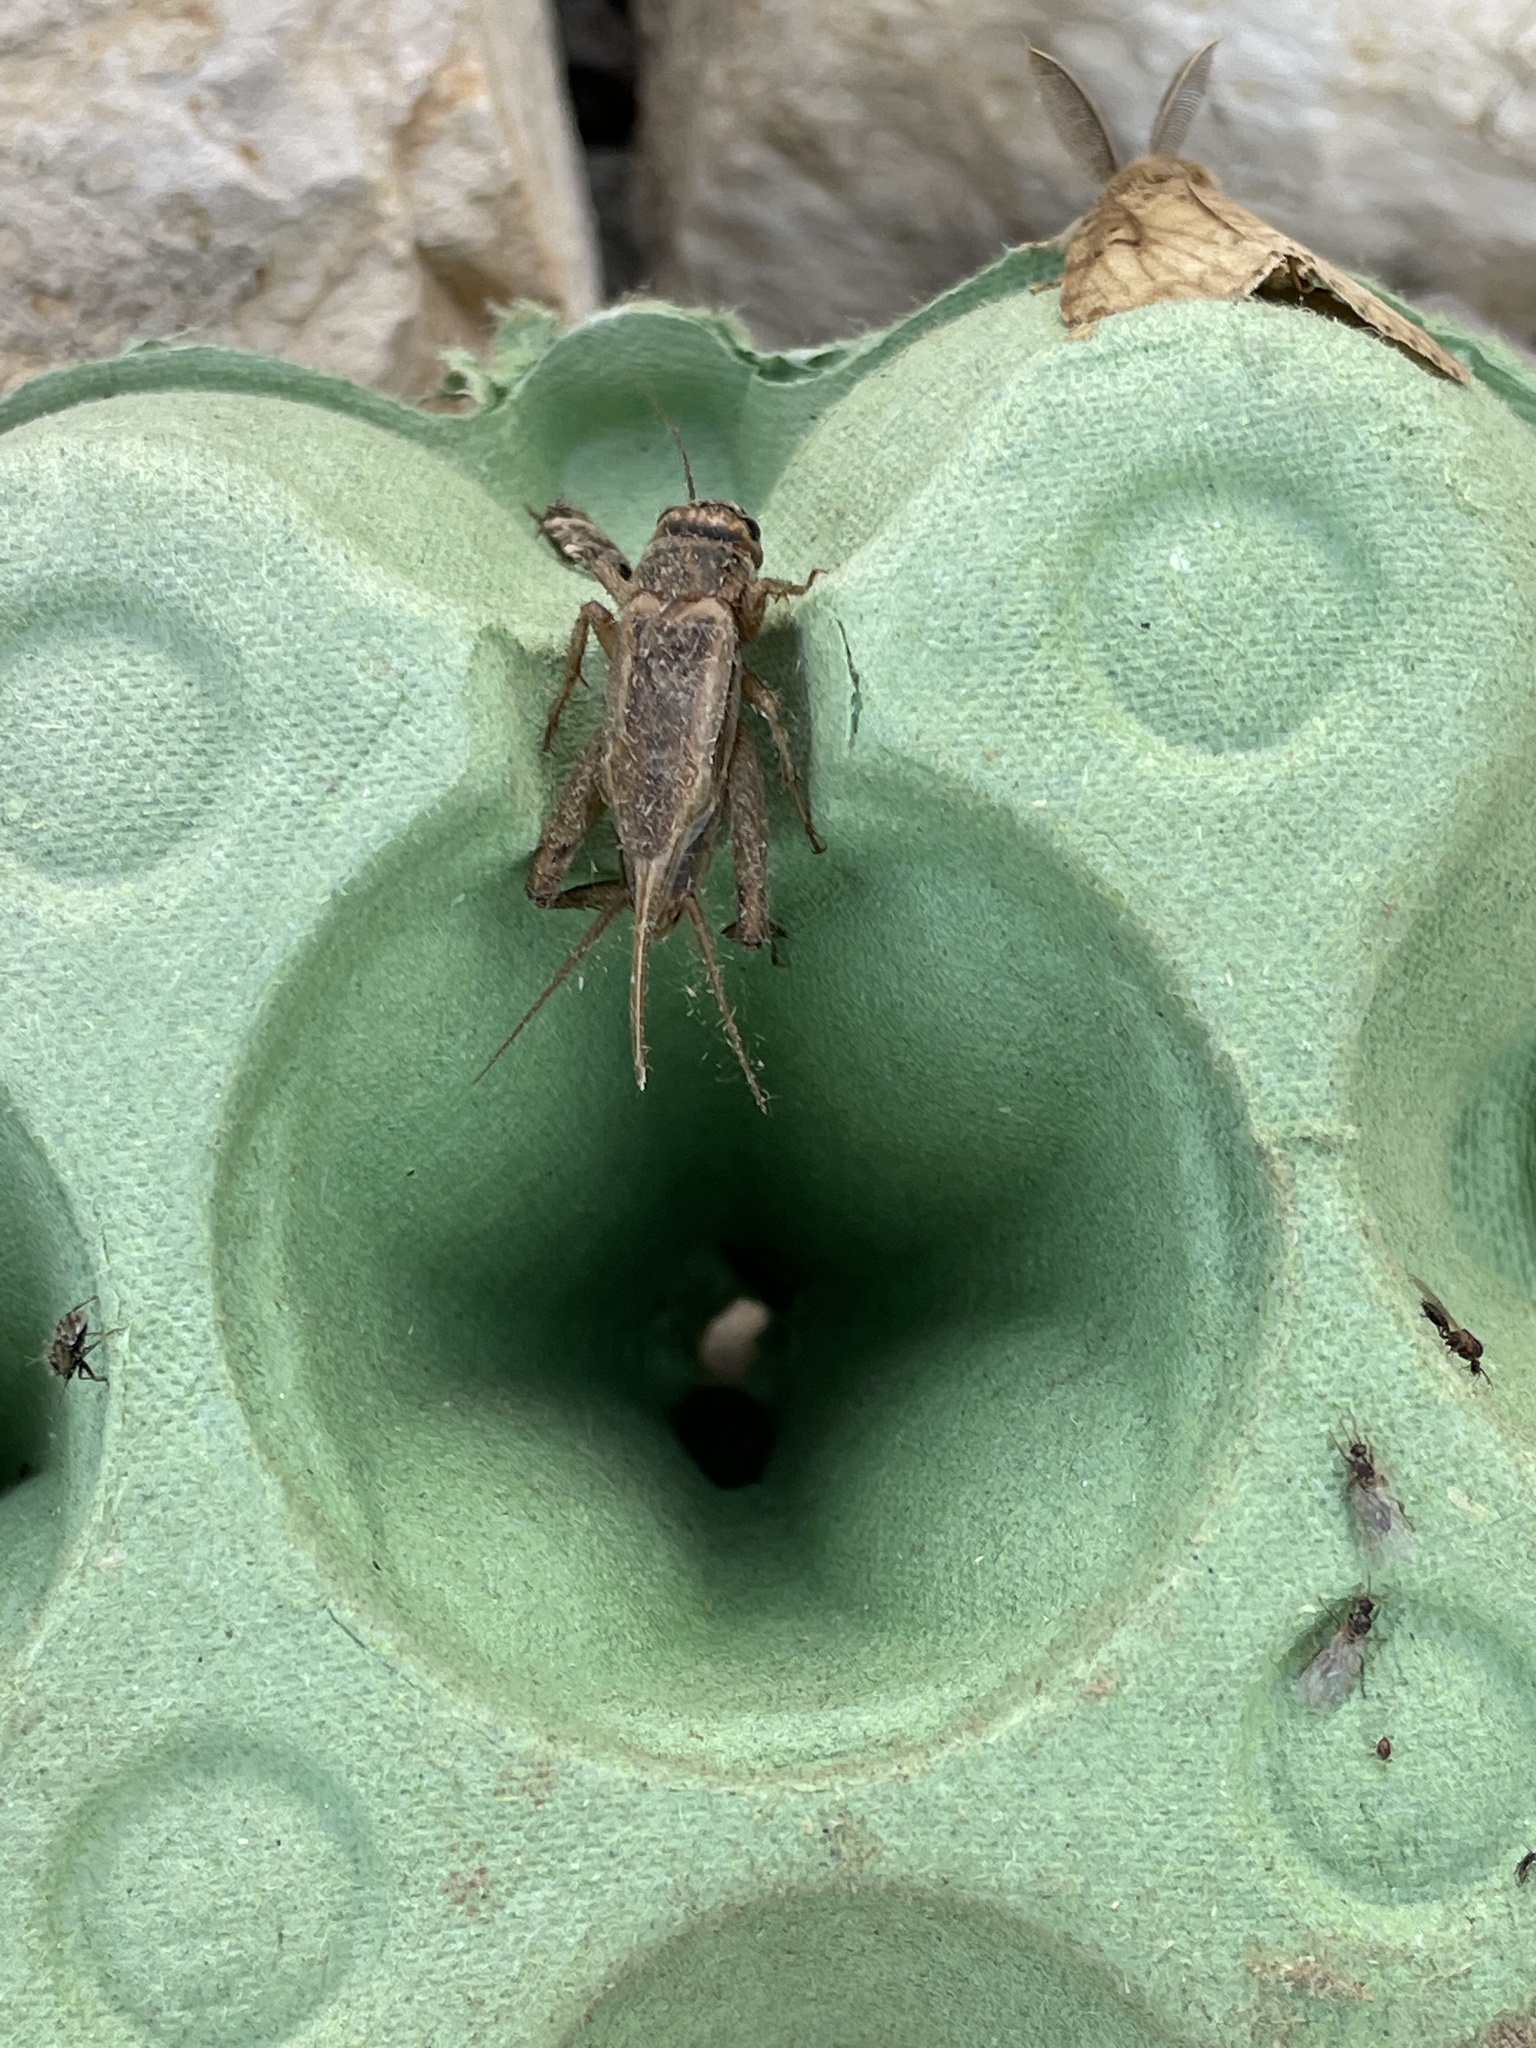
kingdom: Animalia
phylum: Arthropoda
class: Insecta
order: Orthoptera
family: Gryllidae
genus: Eumodicogryllus
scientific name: Eumodicogryllus bordigalensis
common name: Bordeaux cricket
